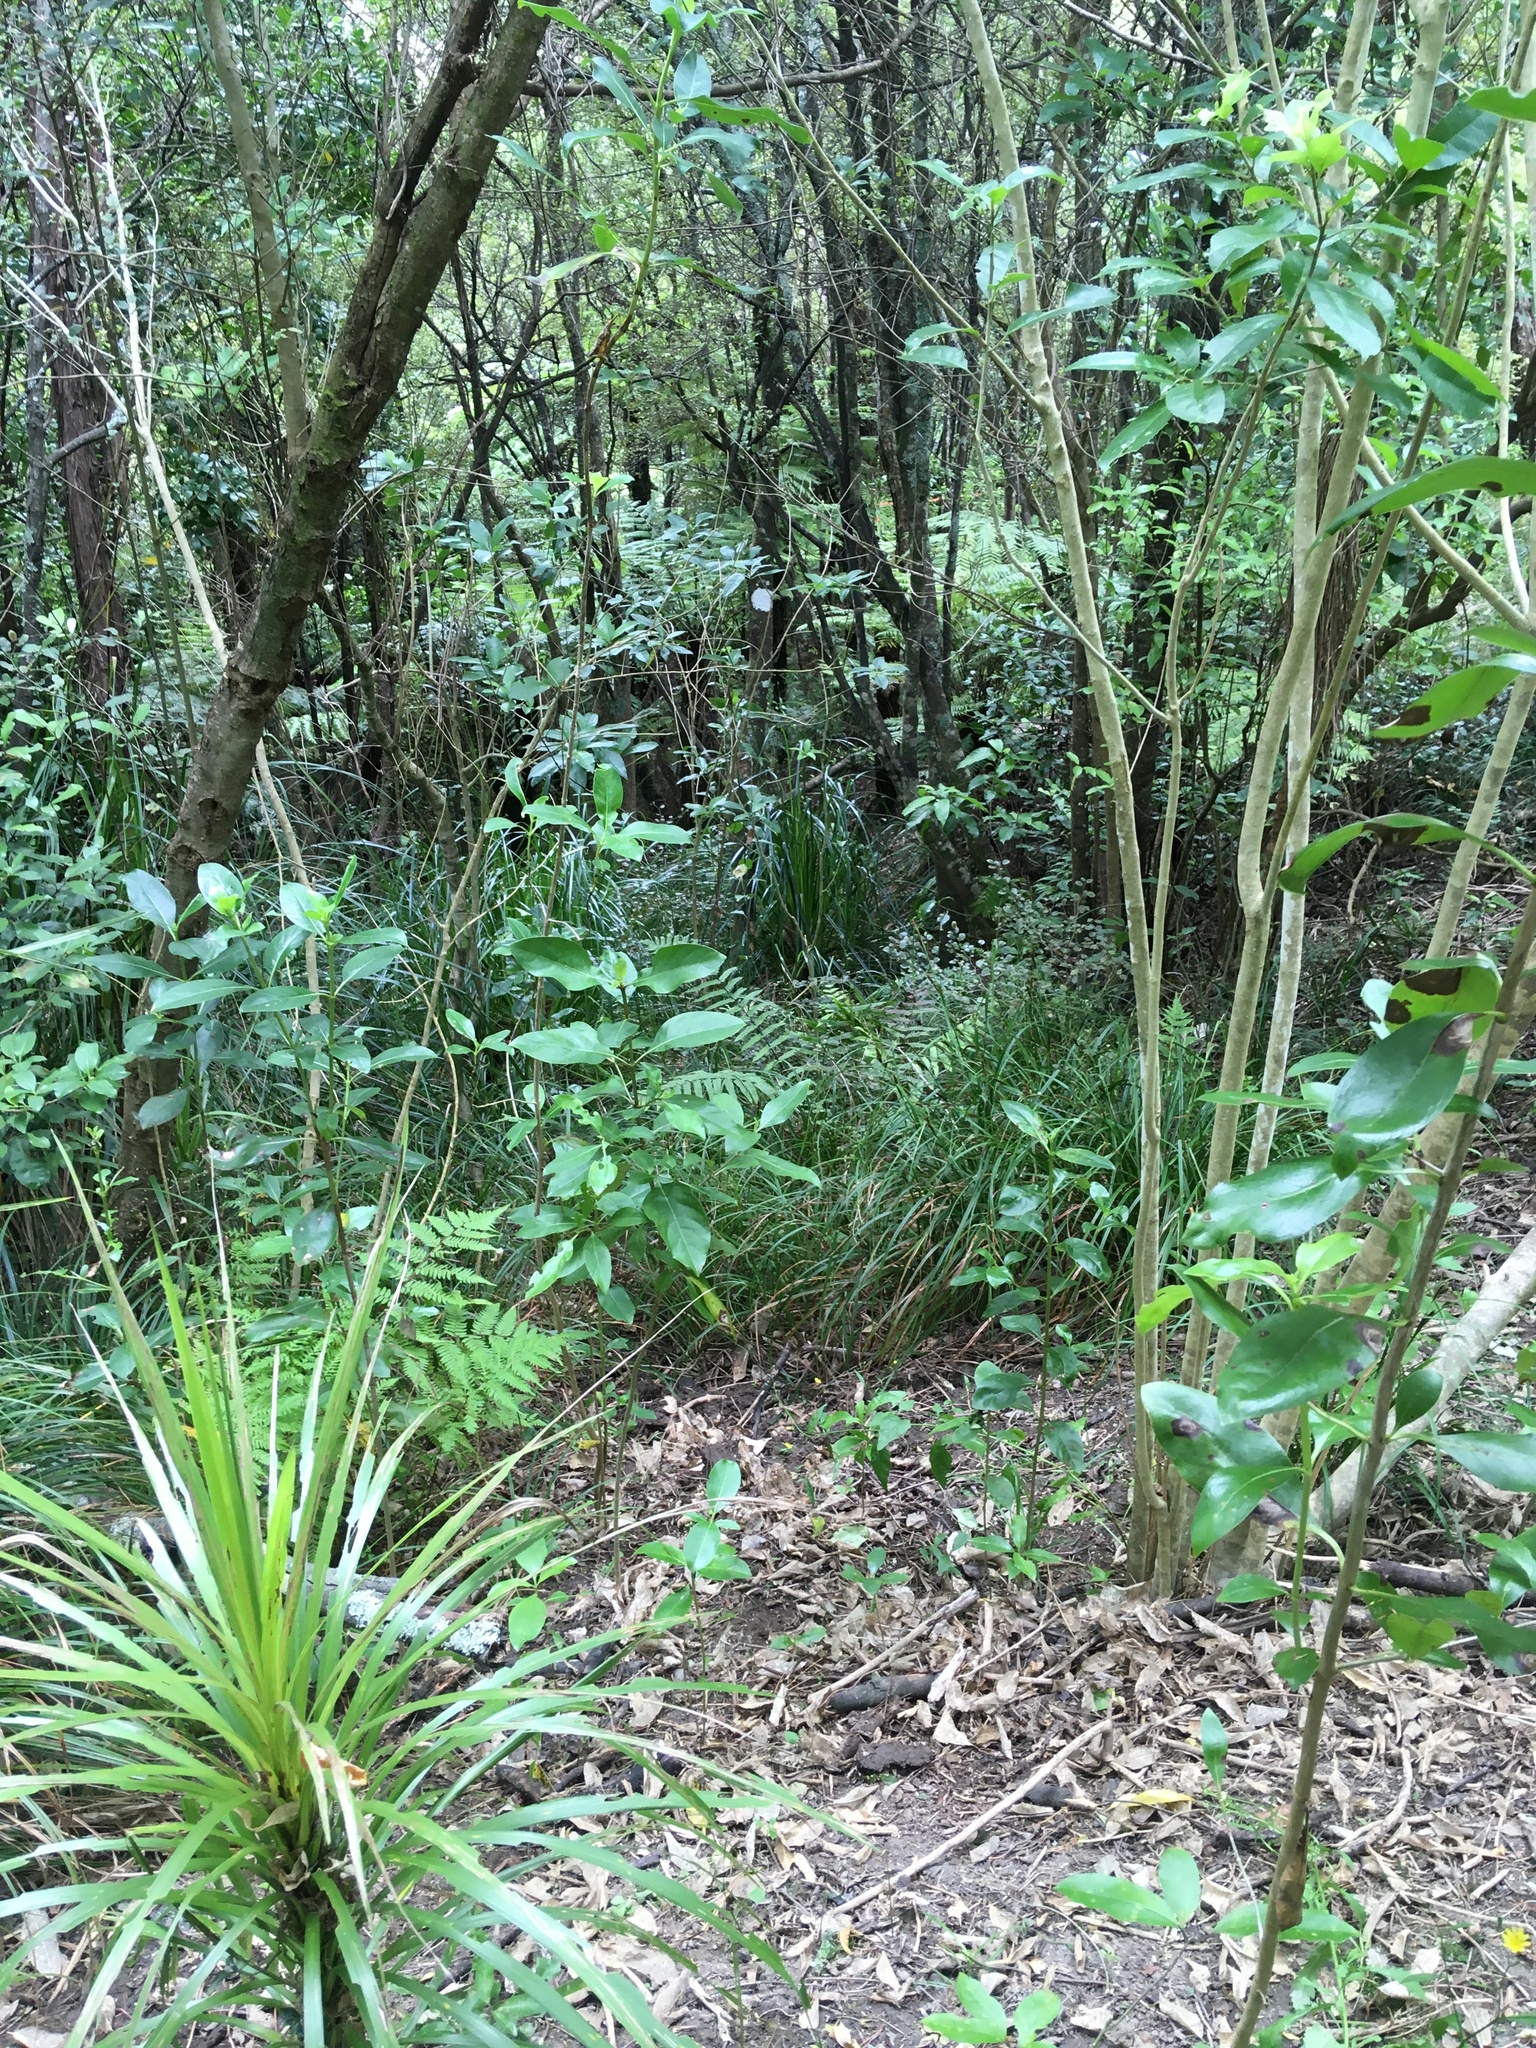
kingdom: Plantae
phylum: Tracheophyta
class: Magnoliopsida
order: Gentianales
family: Rubiaceae
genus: Coprosma
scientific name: Coprosma robusta
